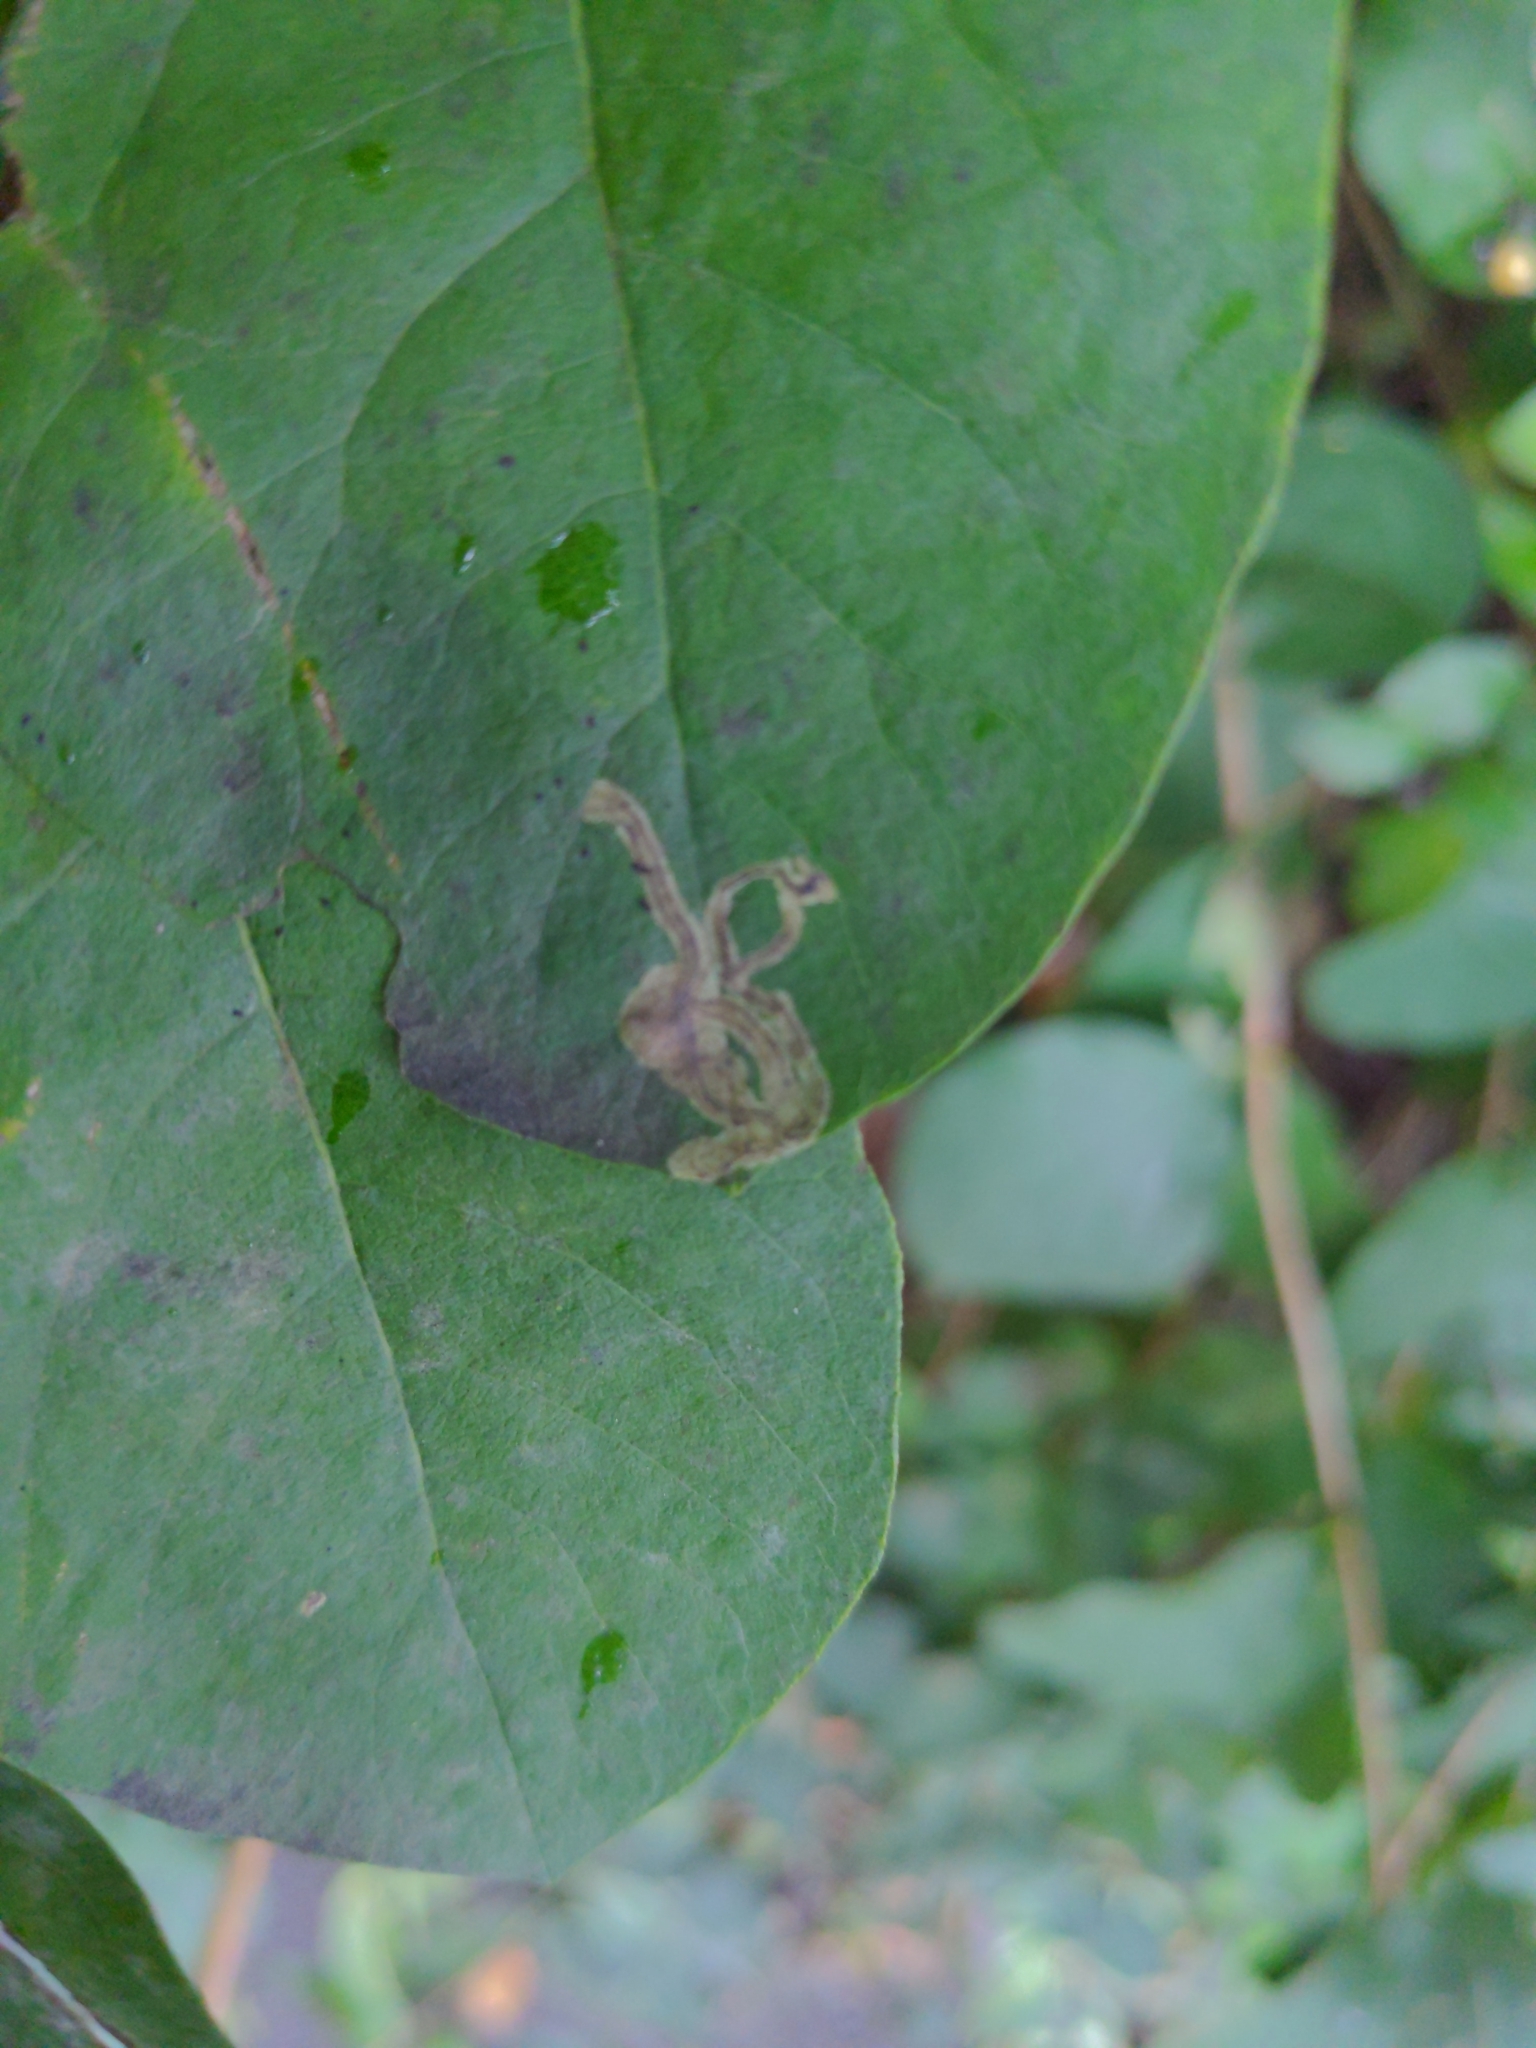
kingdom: Animalia
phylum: Arthropoda
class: Insecta
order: Diptera
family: Agromyzidae
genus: Phytomyza
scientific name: Phytomyza lonicerae
